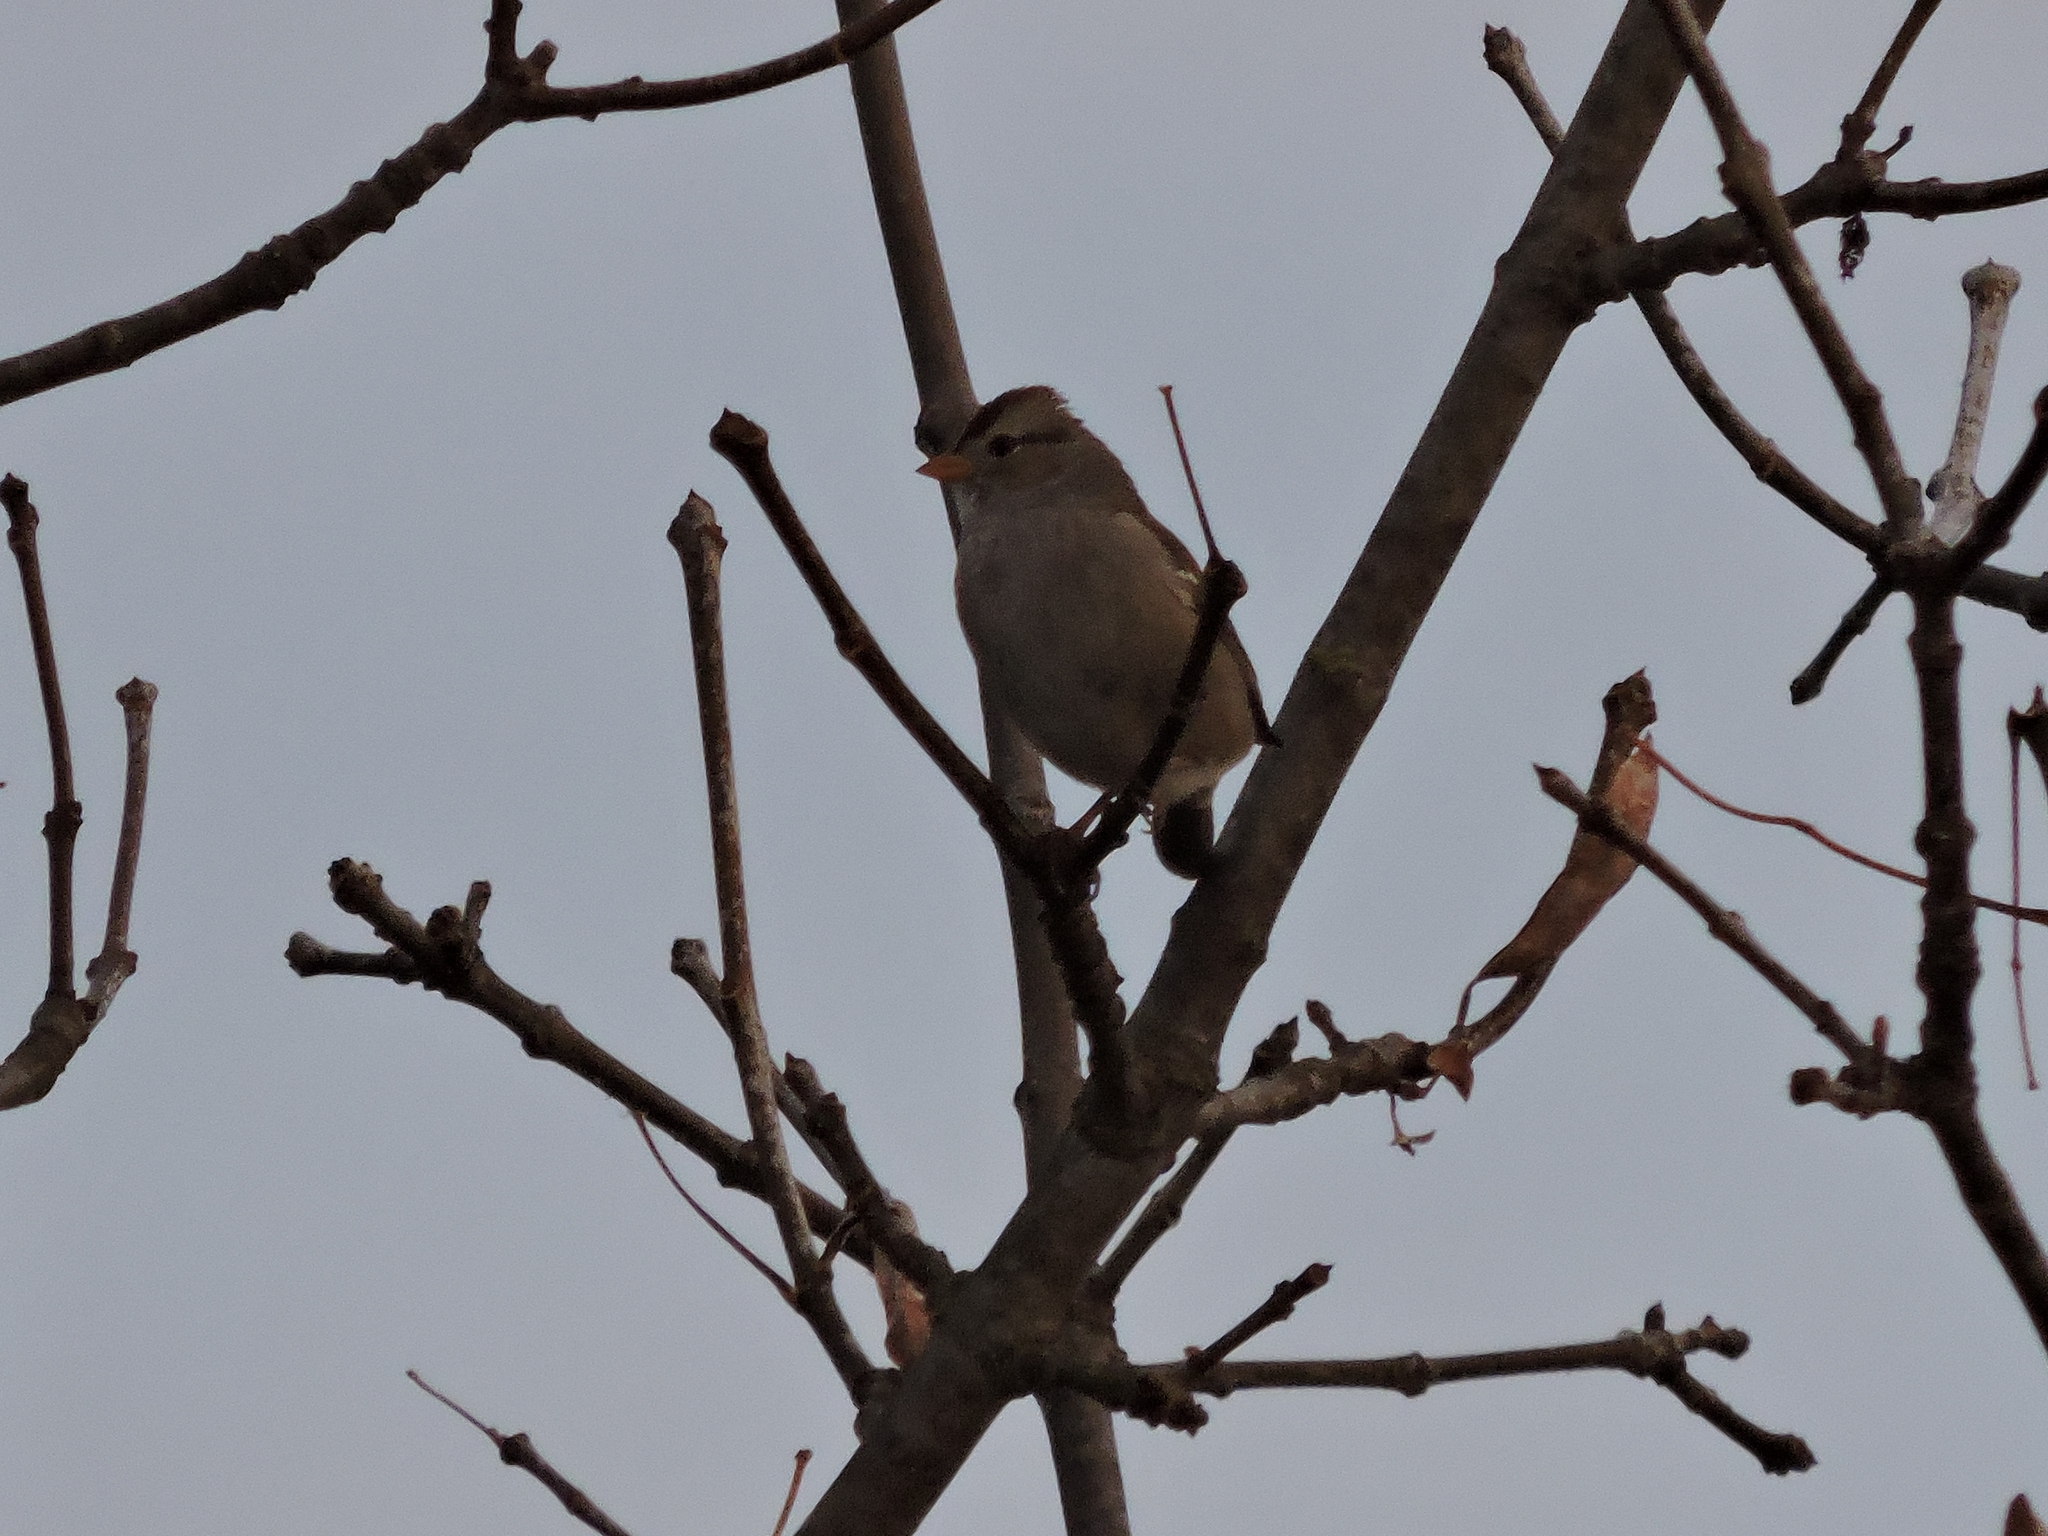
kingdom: Animalia
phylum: Chordata
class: Aves
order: Passeriformes
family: Passerellidae
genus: Zonotrichia
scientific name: Zonotrichia leucophrys
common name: White-crowned sparrow
